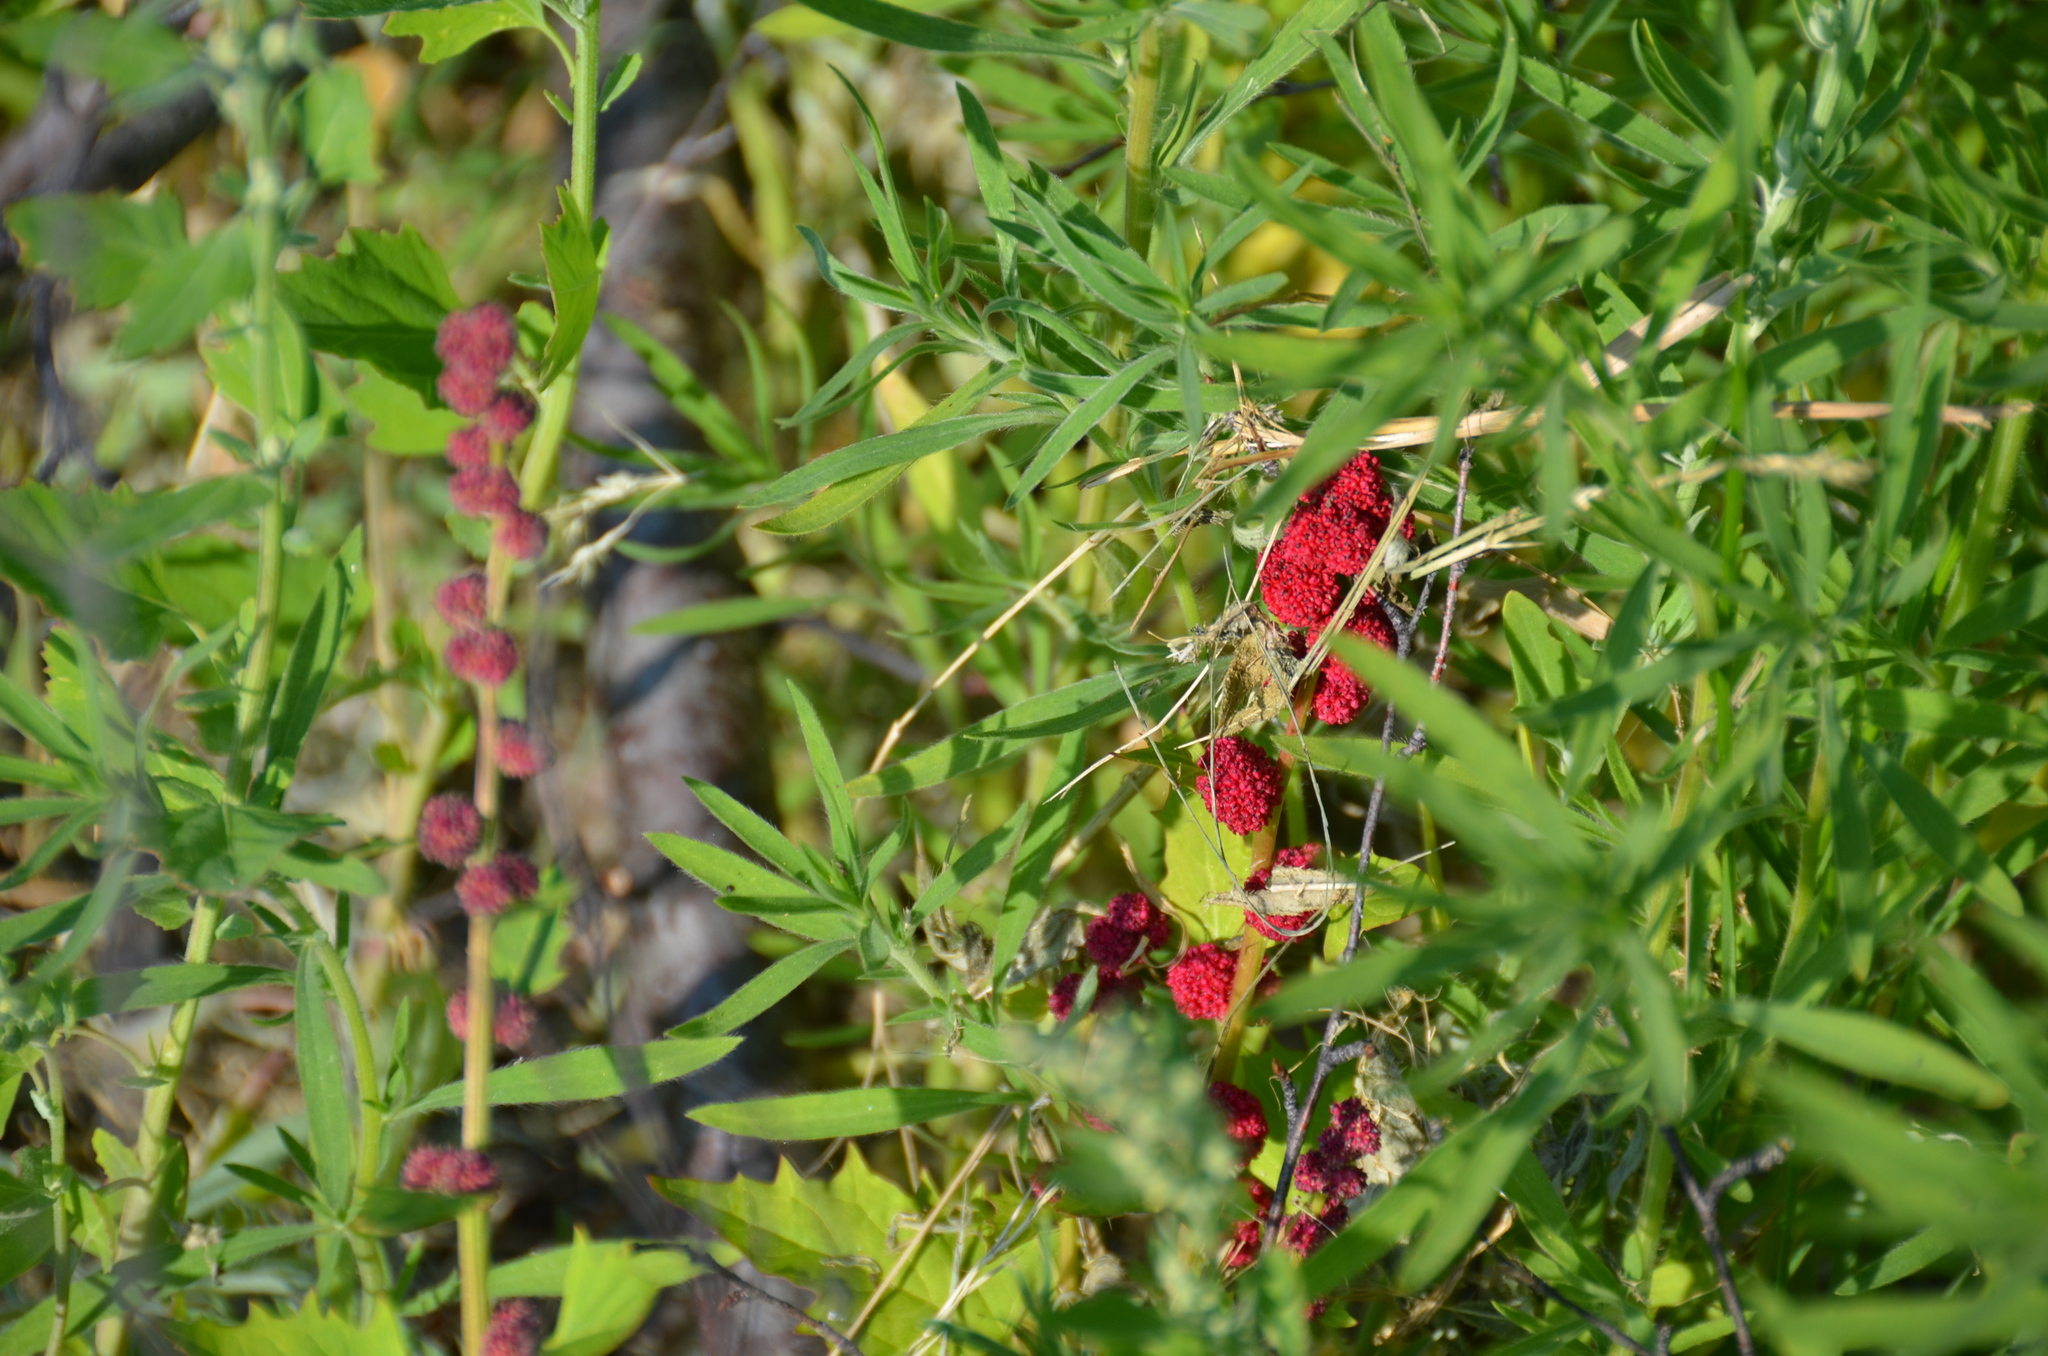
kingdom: Plantae
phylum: Tracheophyta
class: Magnoliopsida
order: Caryophyllales
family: Amaranthaceae
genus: Blitum
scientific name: Blitum capitatum
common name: Strawberry-blight
